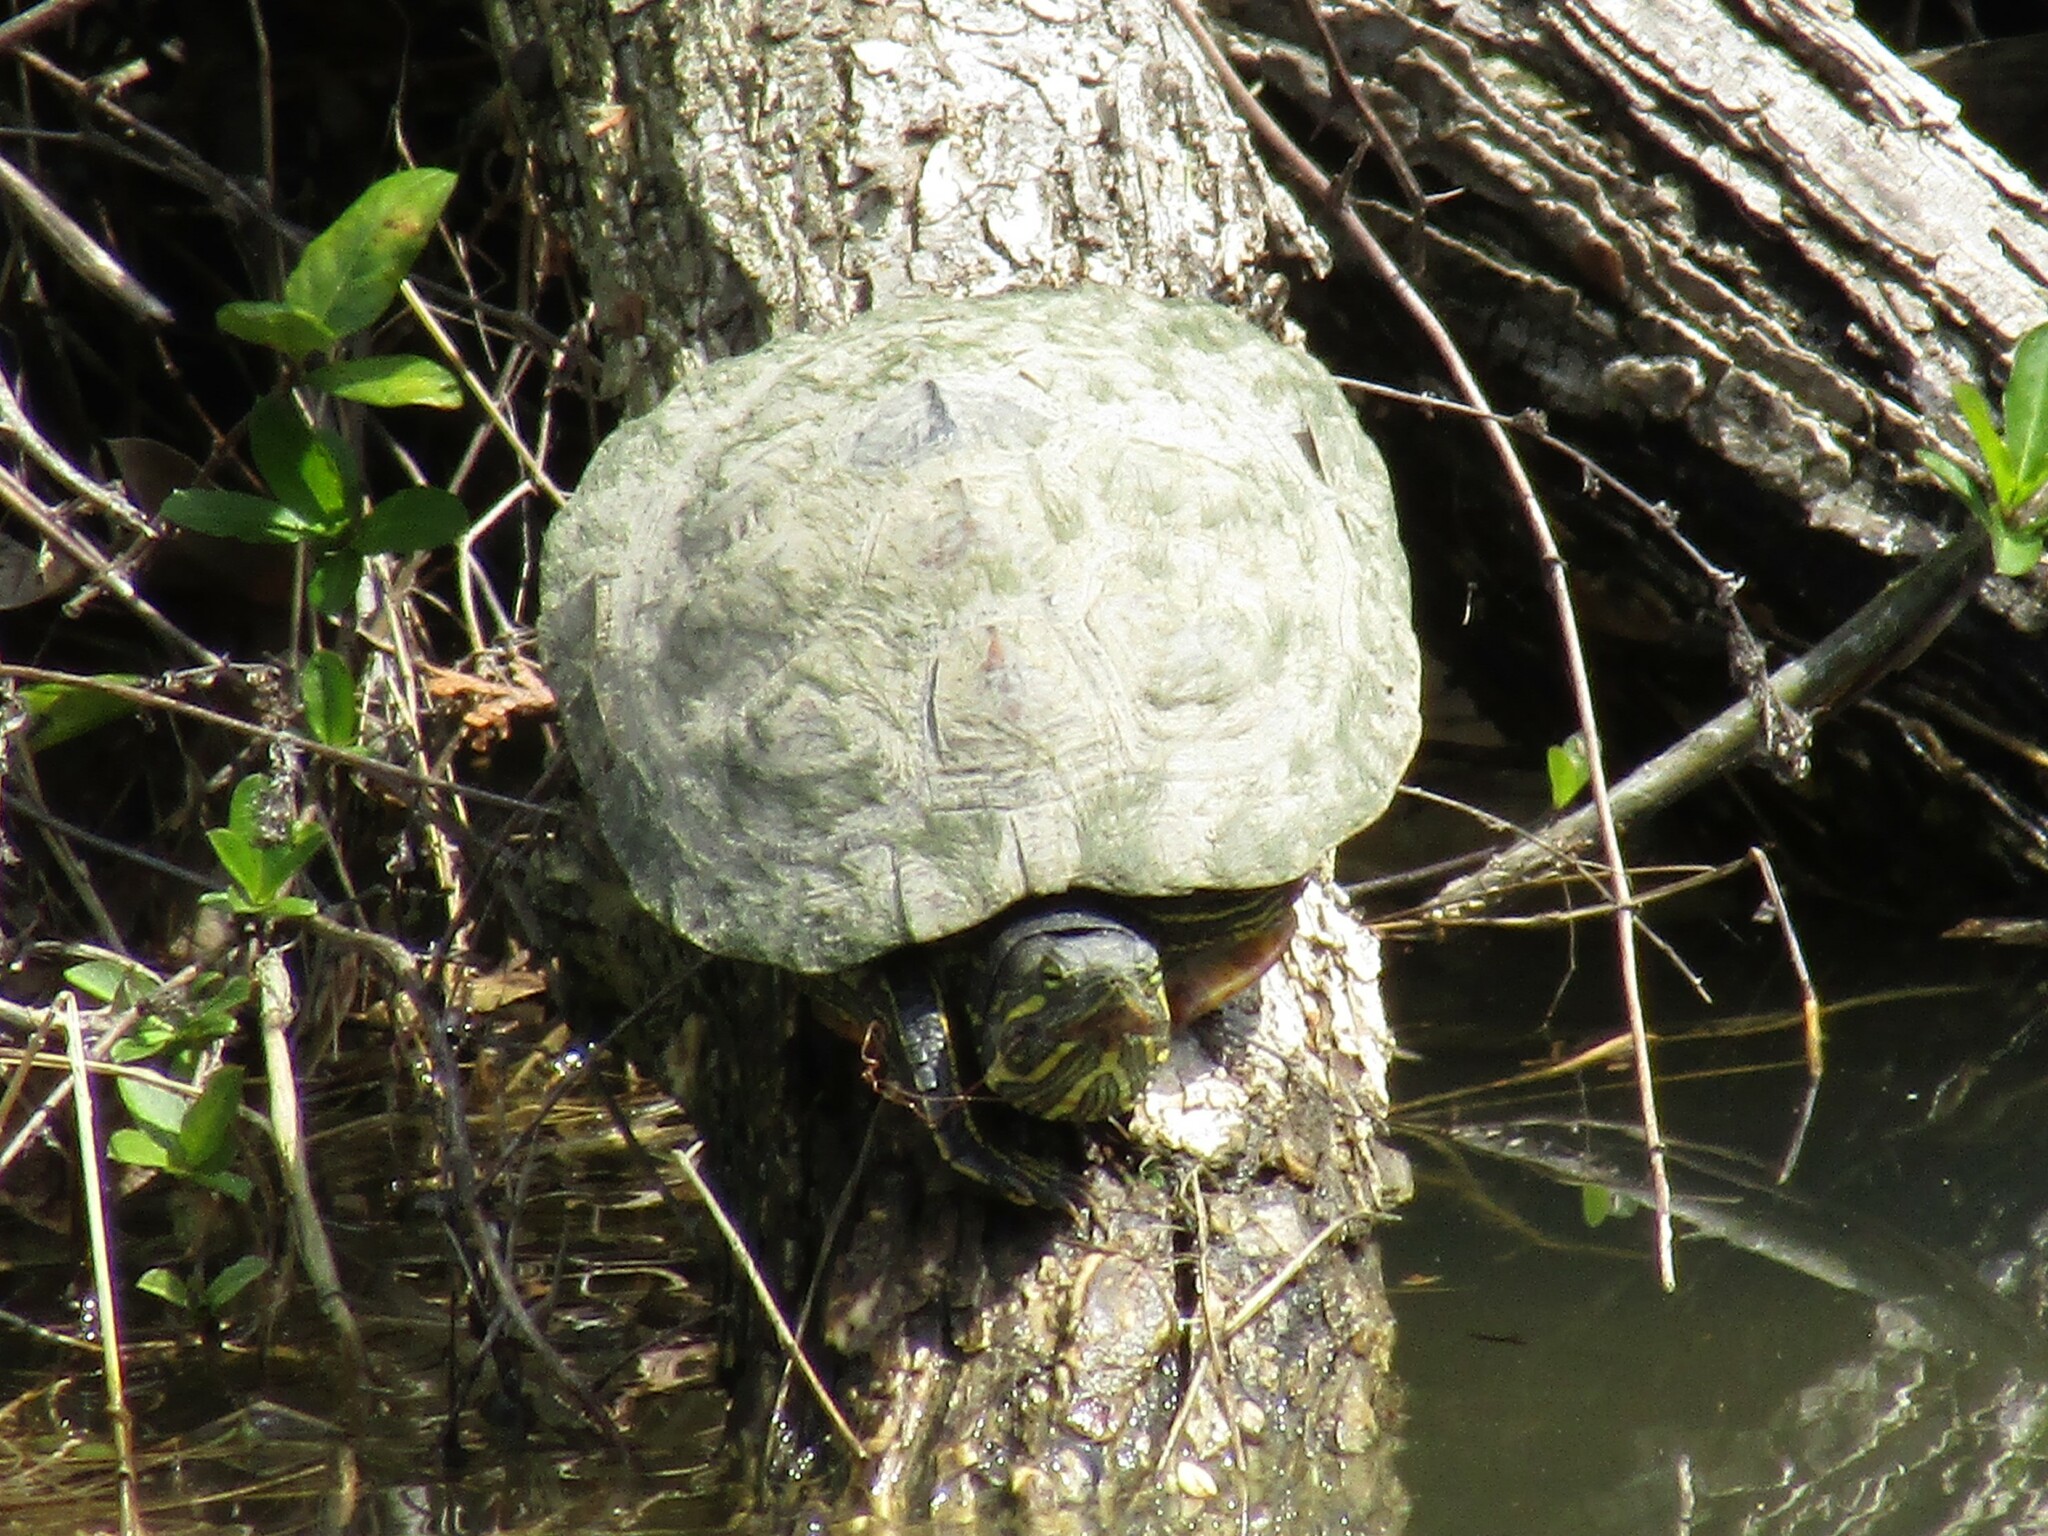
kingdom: Animalia
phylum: Chordata
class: Testudines
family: Emydidae
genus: Trachemys
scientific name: Trachemys scripta
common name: Slider
